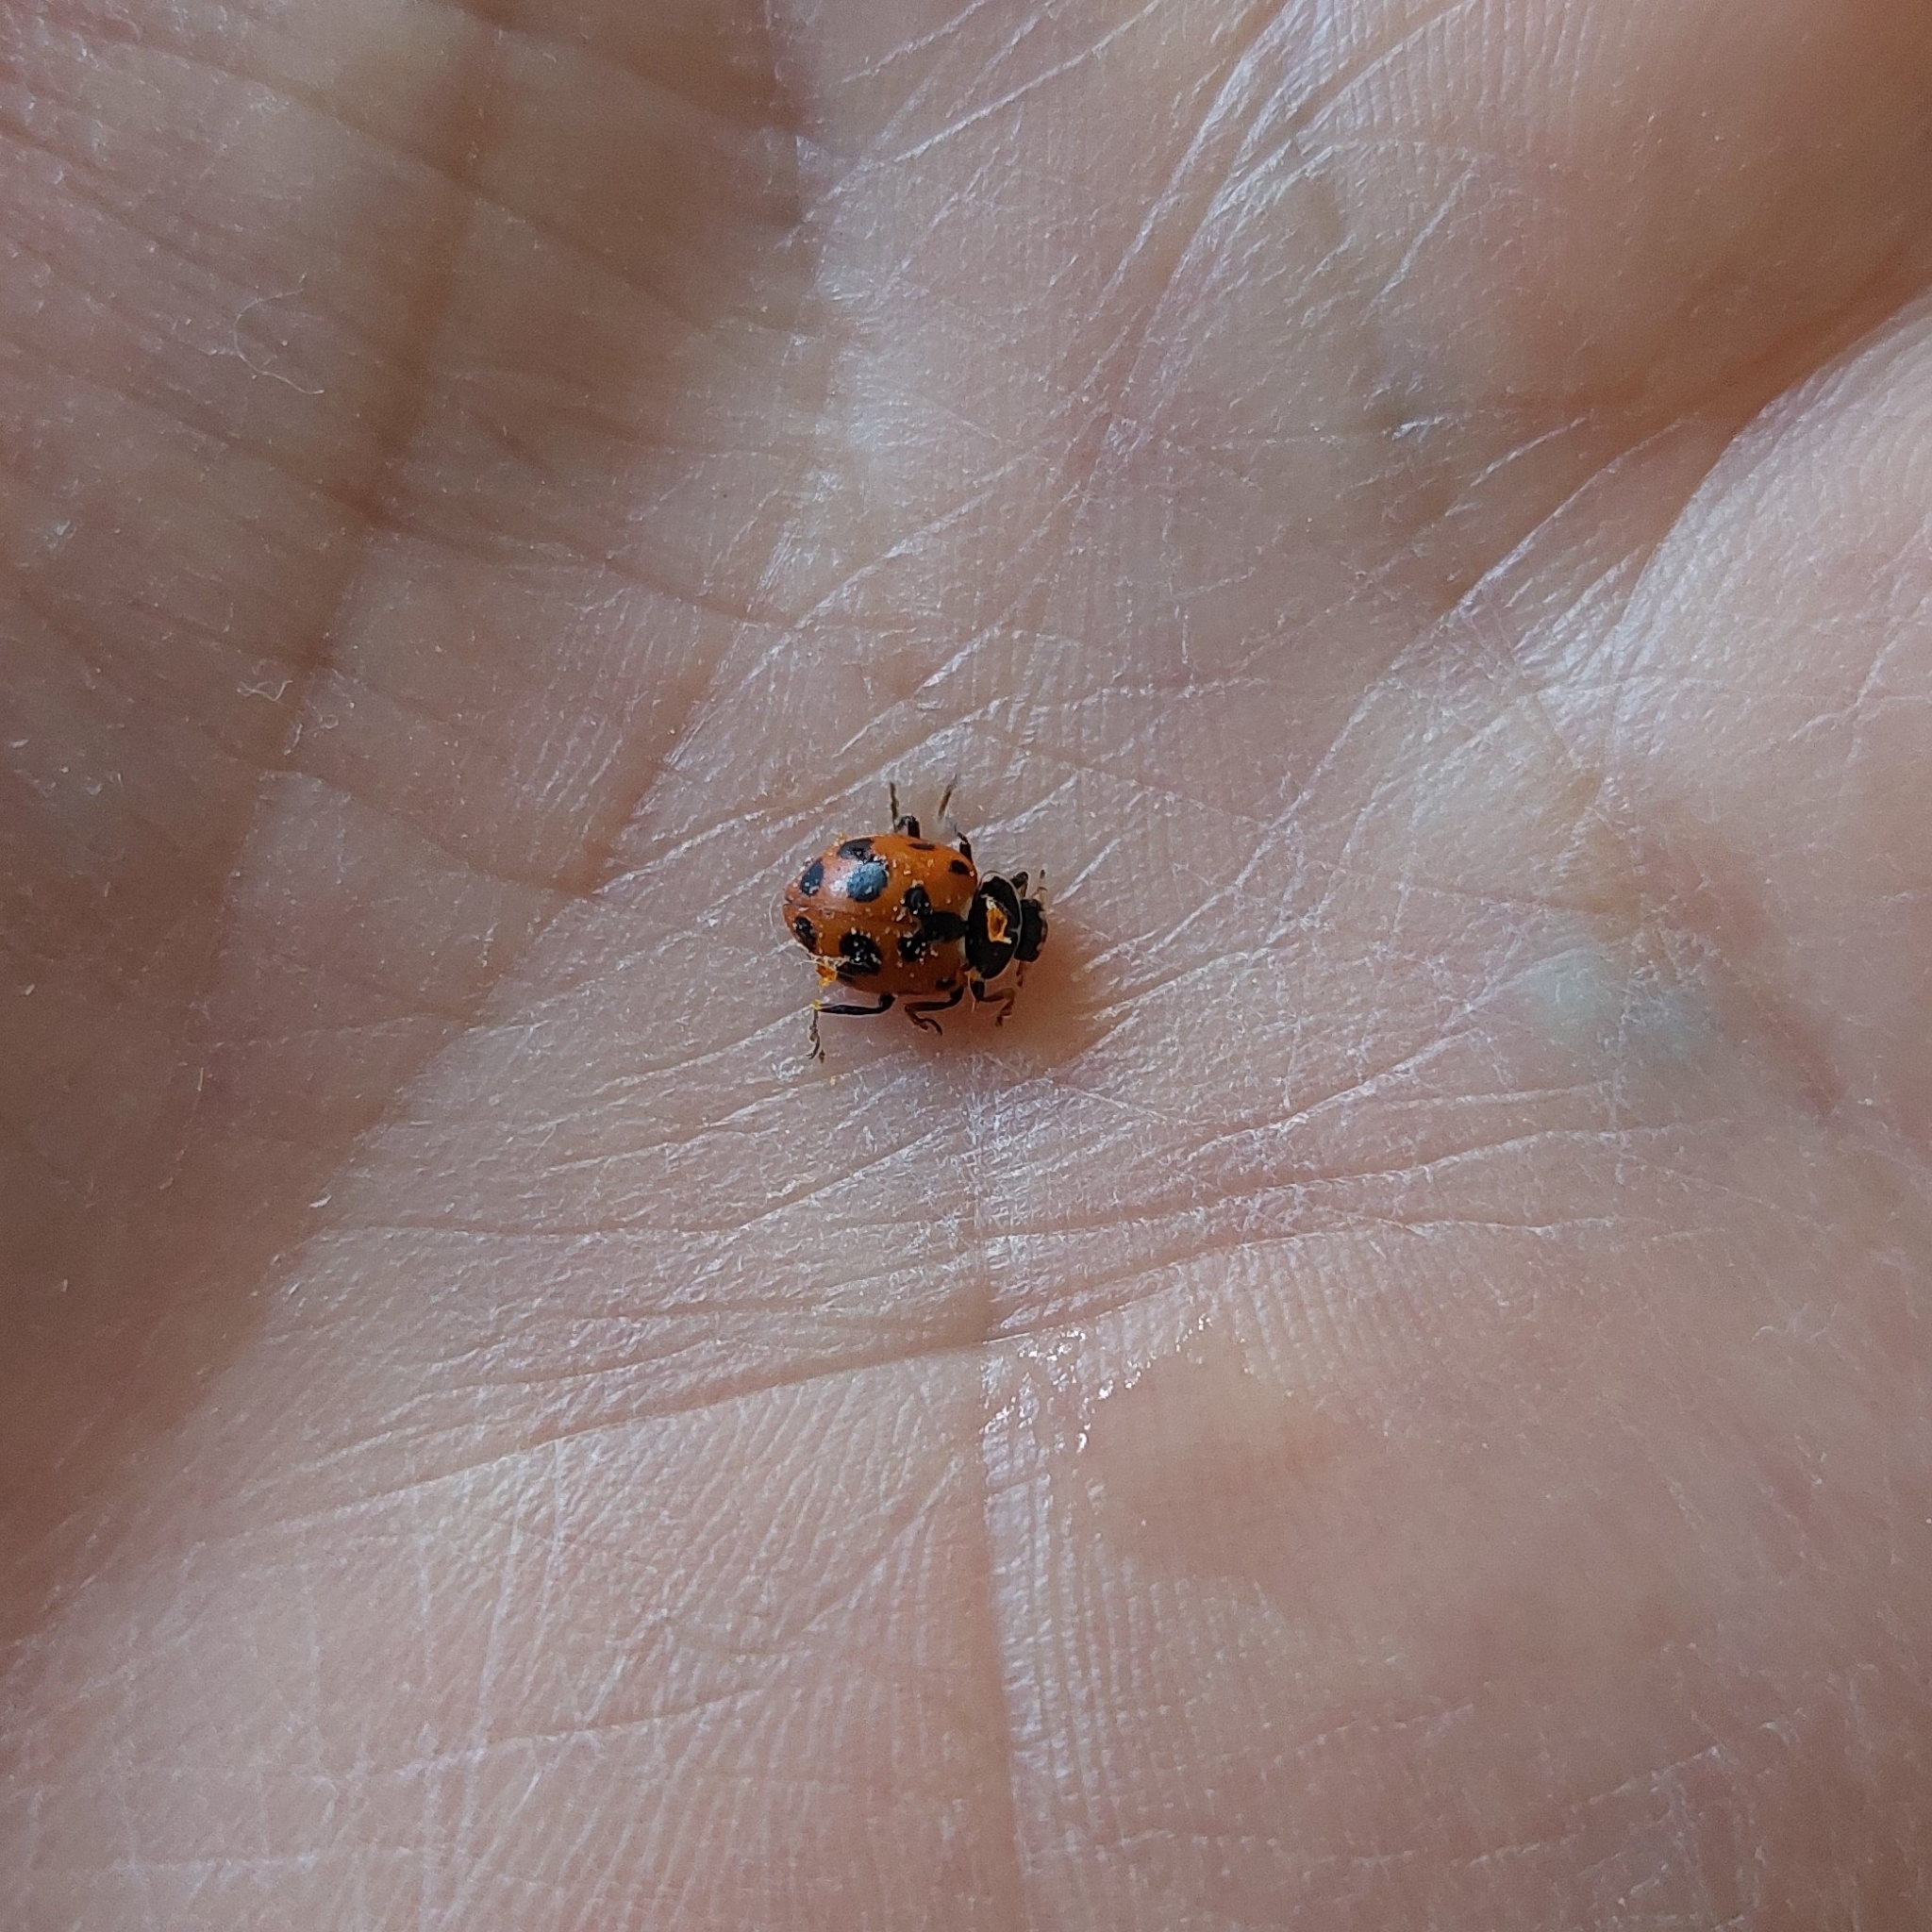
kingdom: Animalia
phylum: Arthropoda
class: Insecta
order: Coleoptera
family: Coccinellidae
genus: Hippodamia
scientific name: Hippodamia variegata
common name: Ladybird beetle
